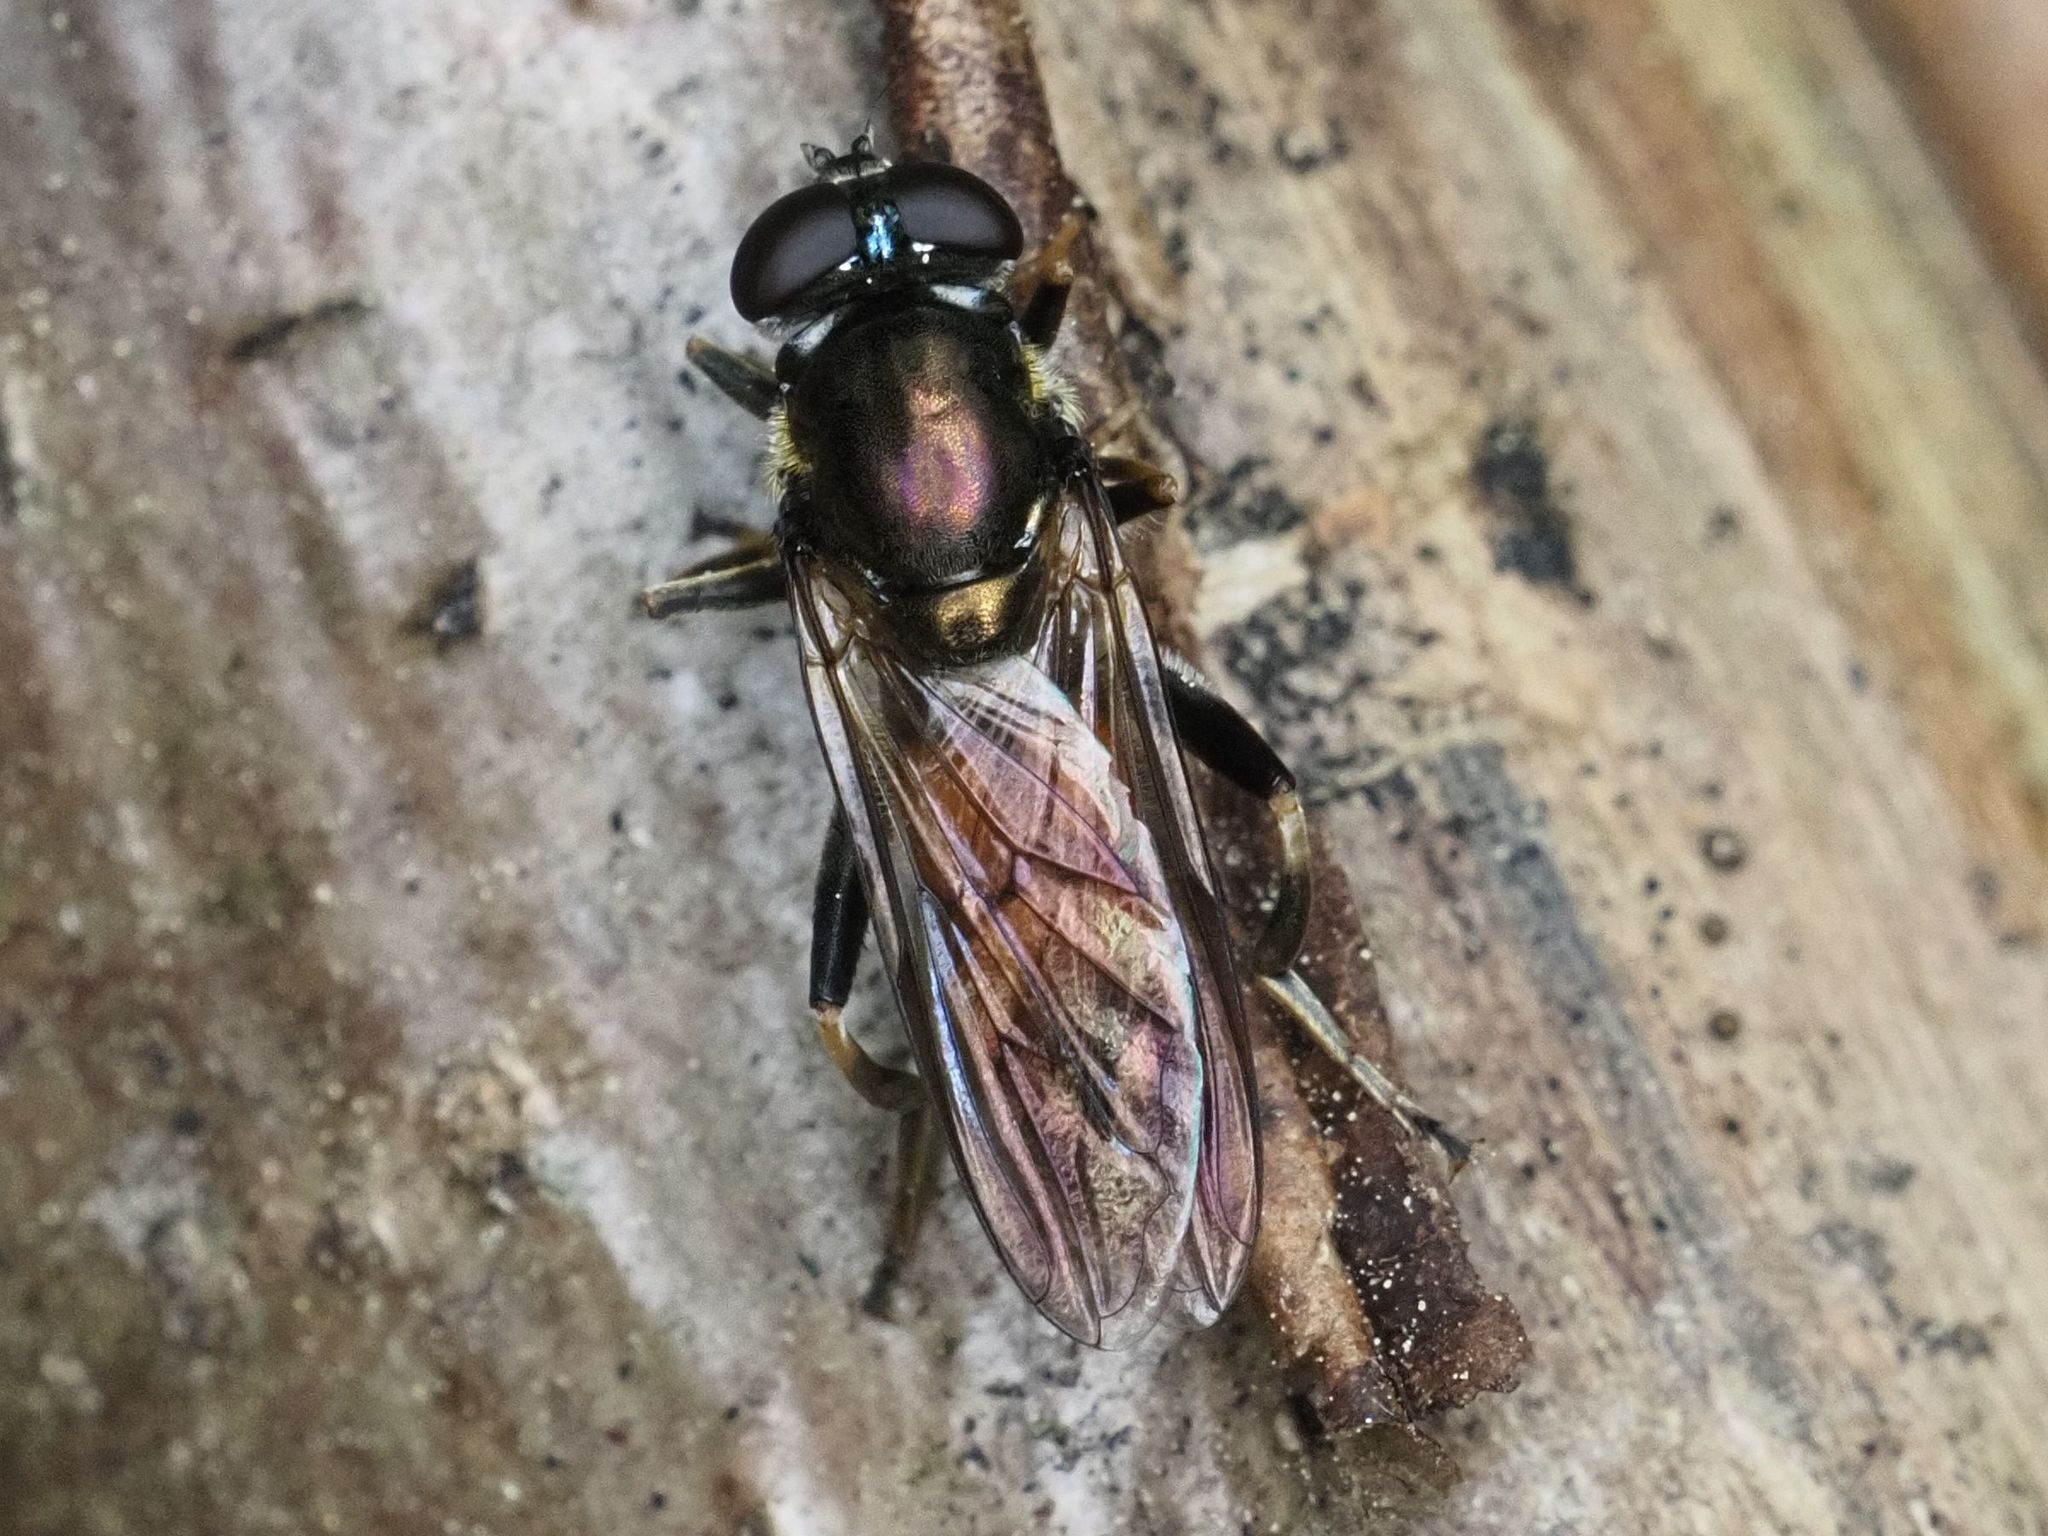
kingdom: Animalia
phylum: Arthropoda
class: Insecta
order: Diptera
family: Syrphidae
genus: Xylota
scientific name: Xylota segnis
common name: Brown-toed forest fly
